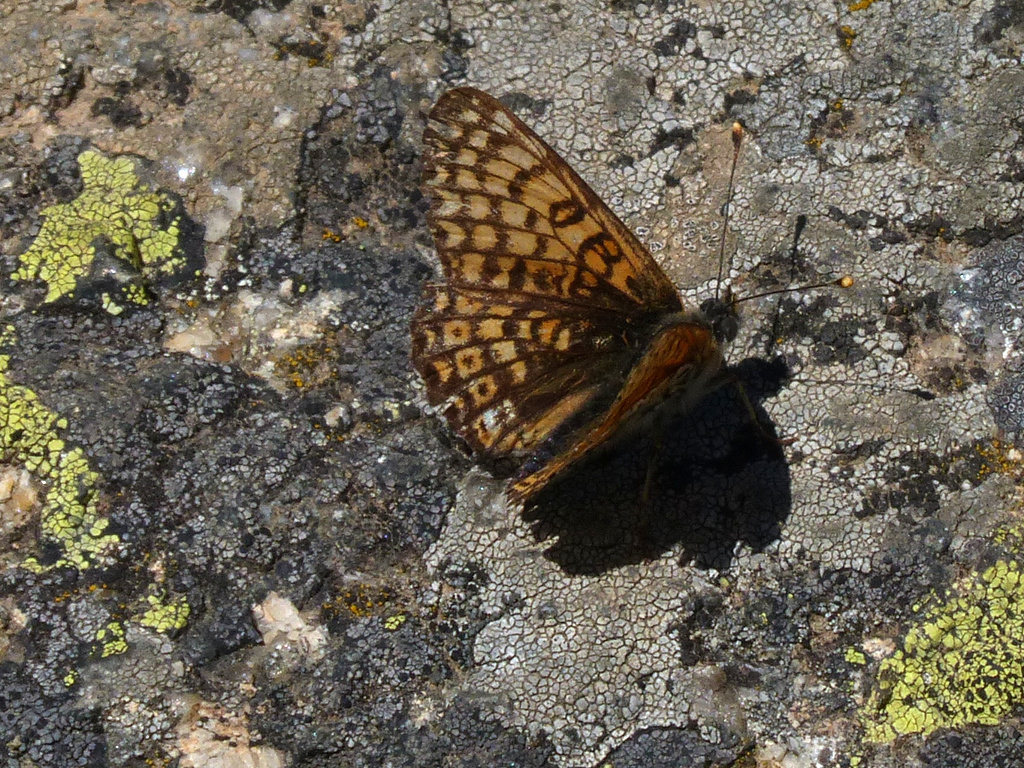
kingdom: Animalia
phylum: Arthropoda
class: Insecta
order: Lepidoptera
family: Nymphalidae
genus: Melitaea
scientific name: Melitaea cinxia
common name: Glanville fritillary
